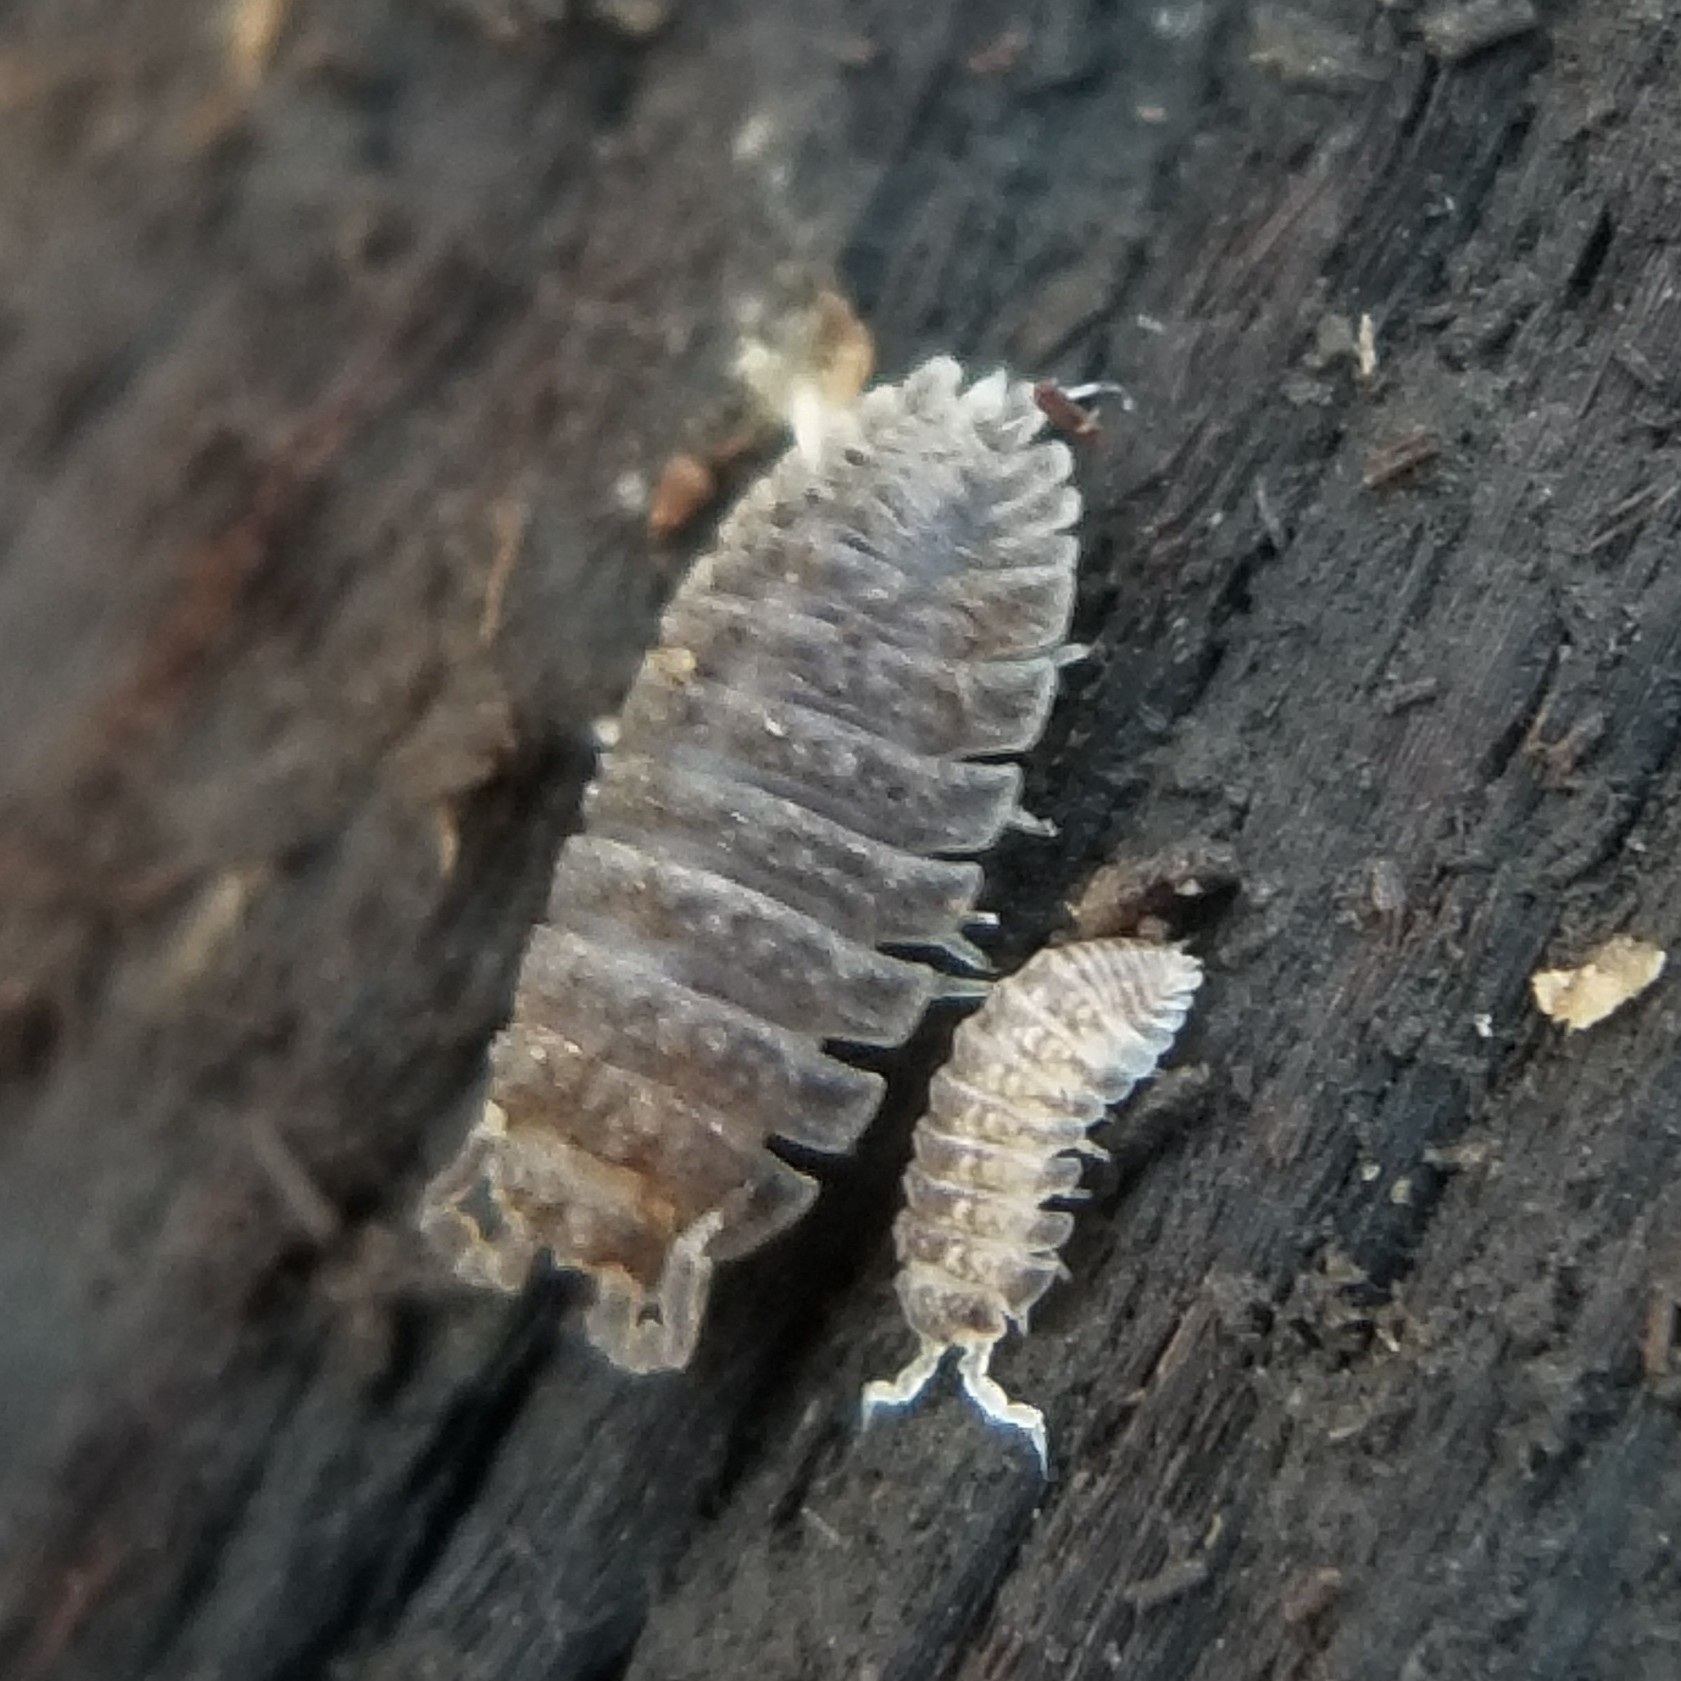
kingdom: Animalia
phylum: Arthropoda
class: Malacostraca
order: Isopoda
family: Detonidae
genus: Armadilloniscus
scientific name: Armadilloniscus lindahli
